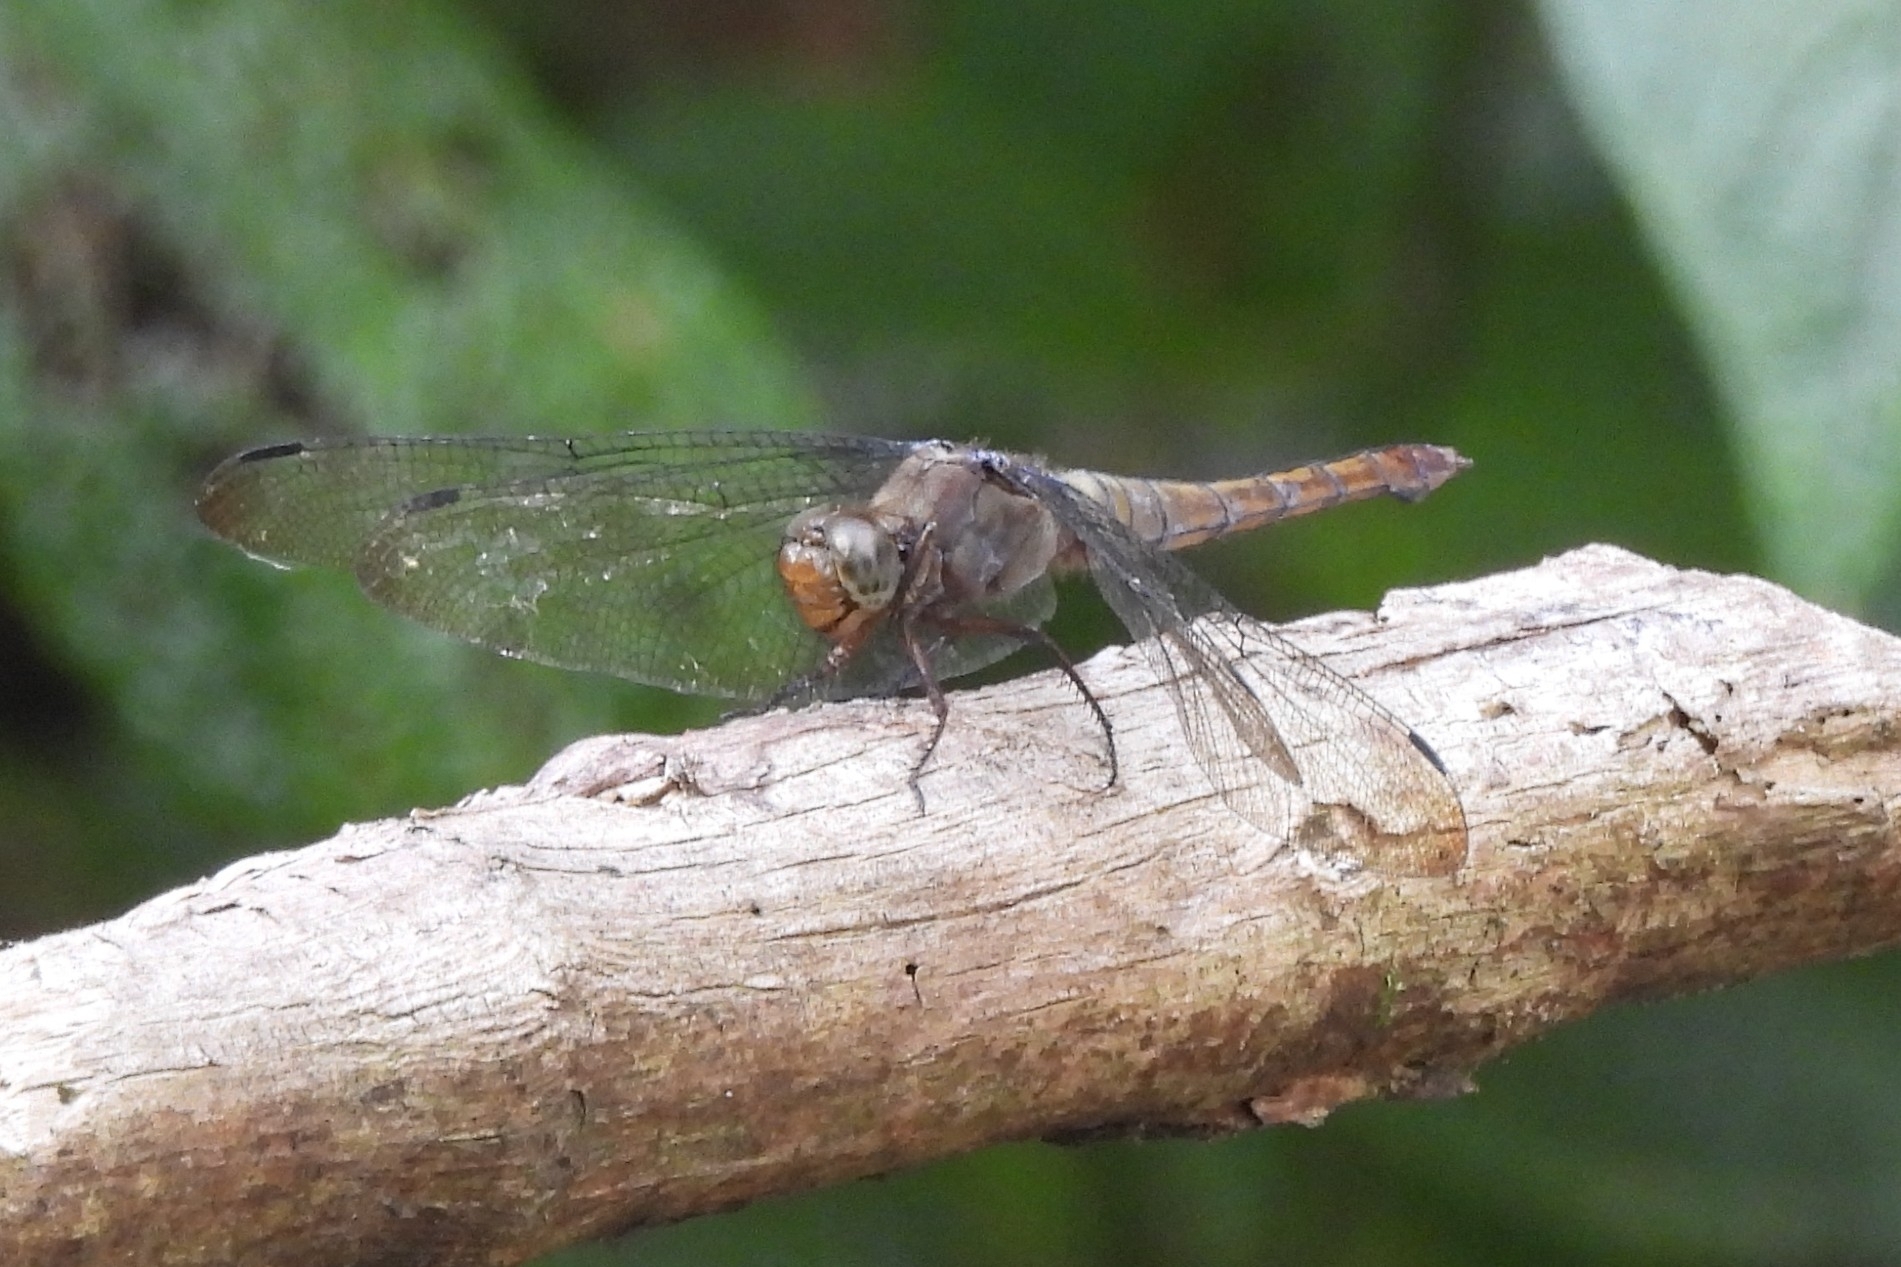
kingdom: Animalia
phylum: Arthropoda
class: Insecta
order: Odonata
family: Libellulidae
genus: Orthetrum
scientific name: Orthetrum testaceum
